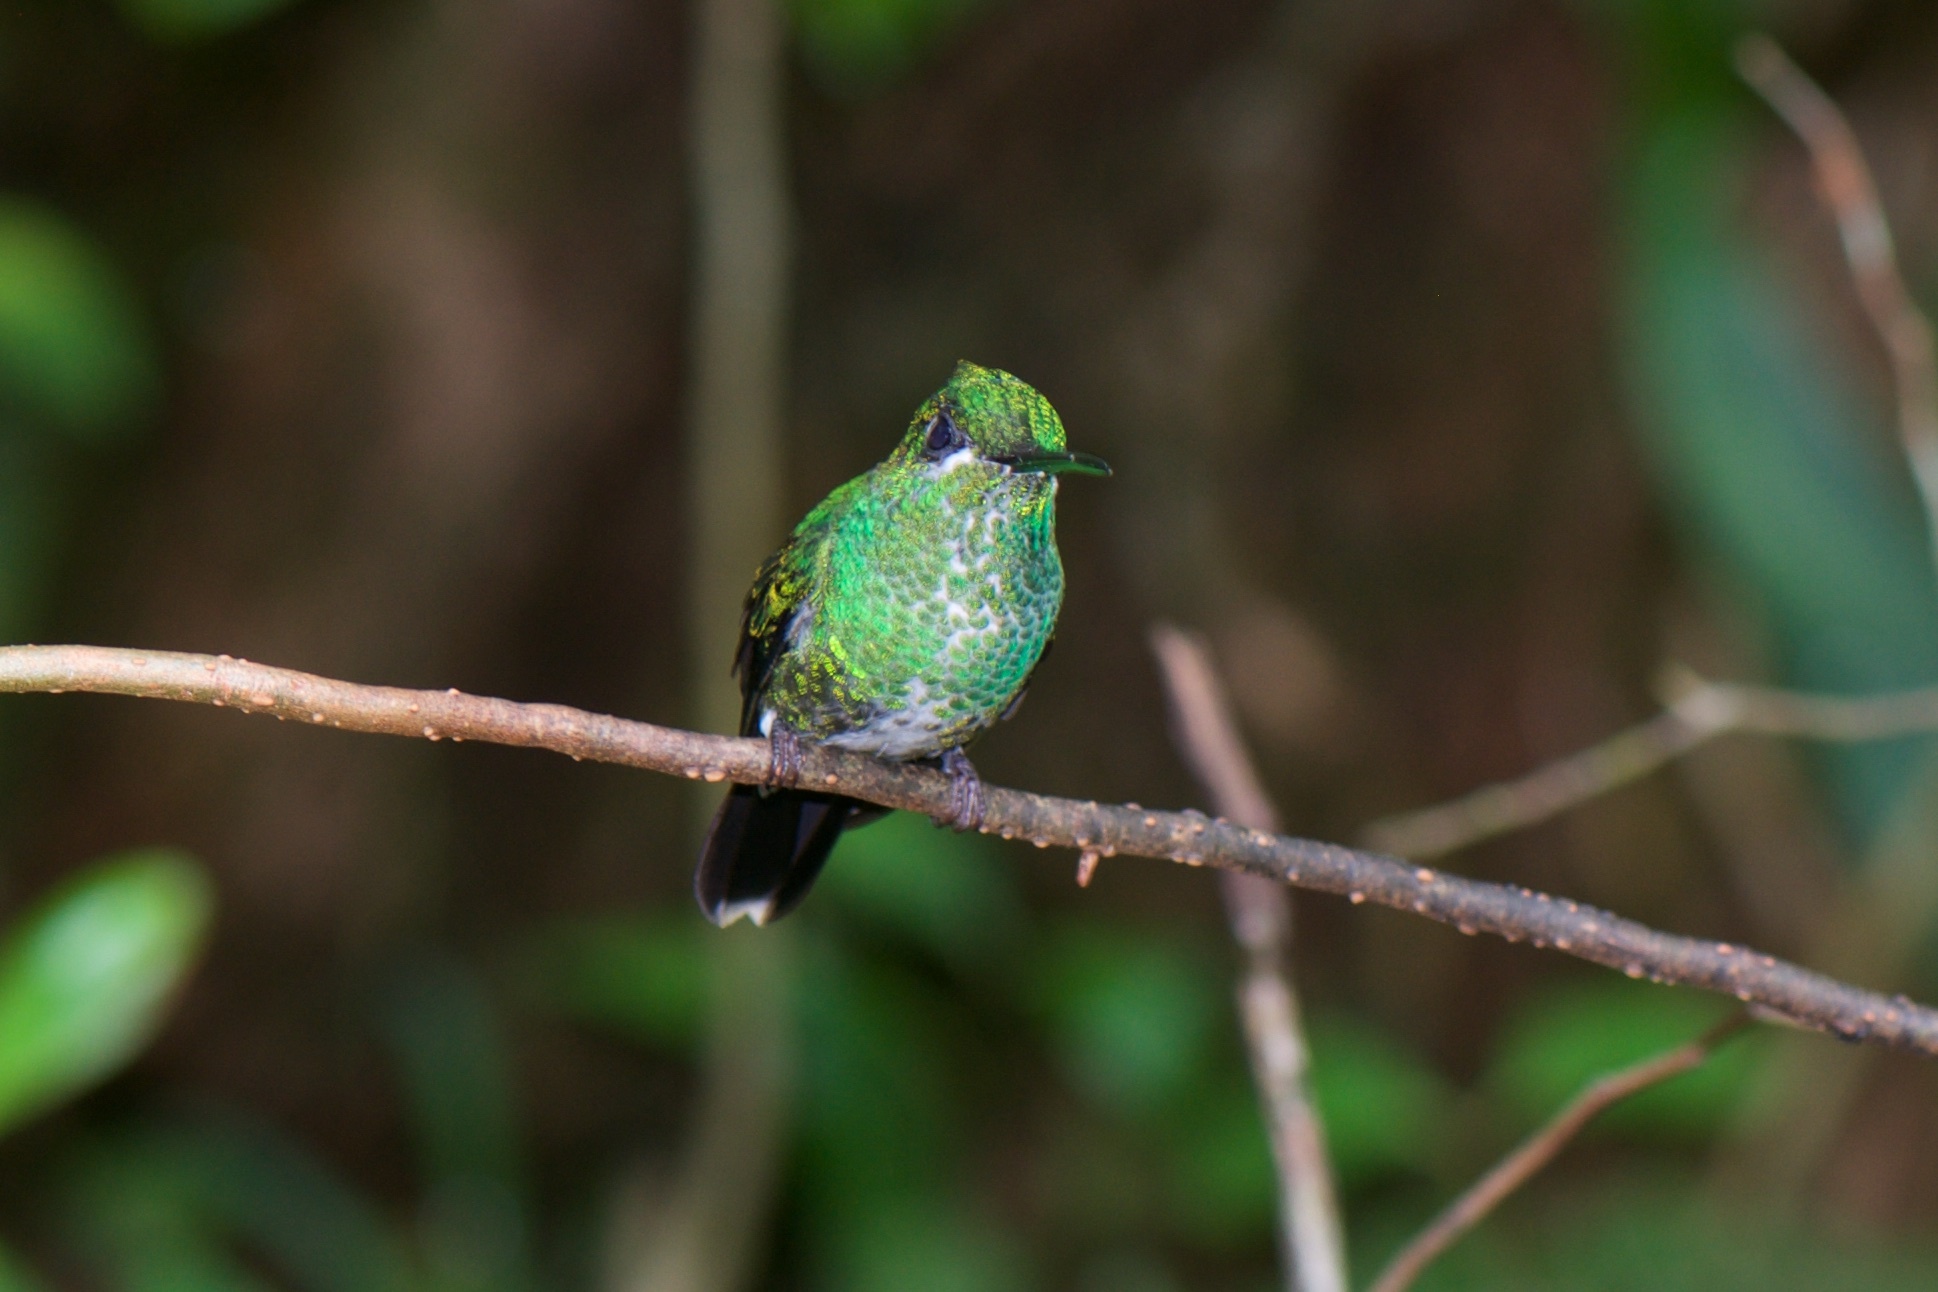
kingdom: Animalia
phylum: Chordata
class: Aves
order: Apodiformes
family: Trochilidae
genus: Heliodoxa
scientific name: Heliodoxa jacula
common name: Green-crowned brilliant
